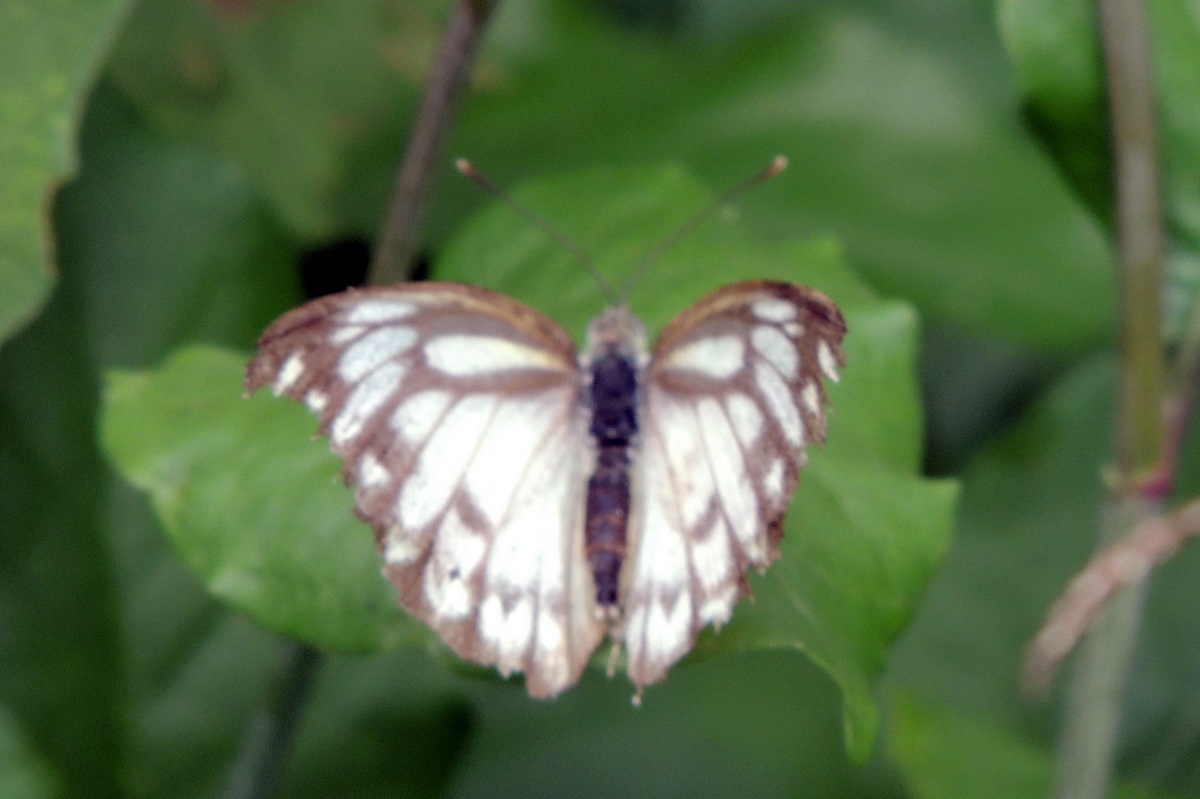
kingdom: Animalia
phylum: Arthropoda
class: Insecta
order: Lepidoptera
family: Pieridae
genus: Cepora
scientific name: Cepora nerissa
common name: Common gull
